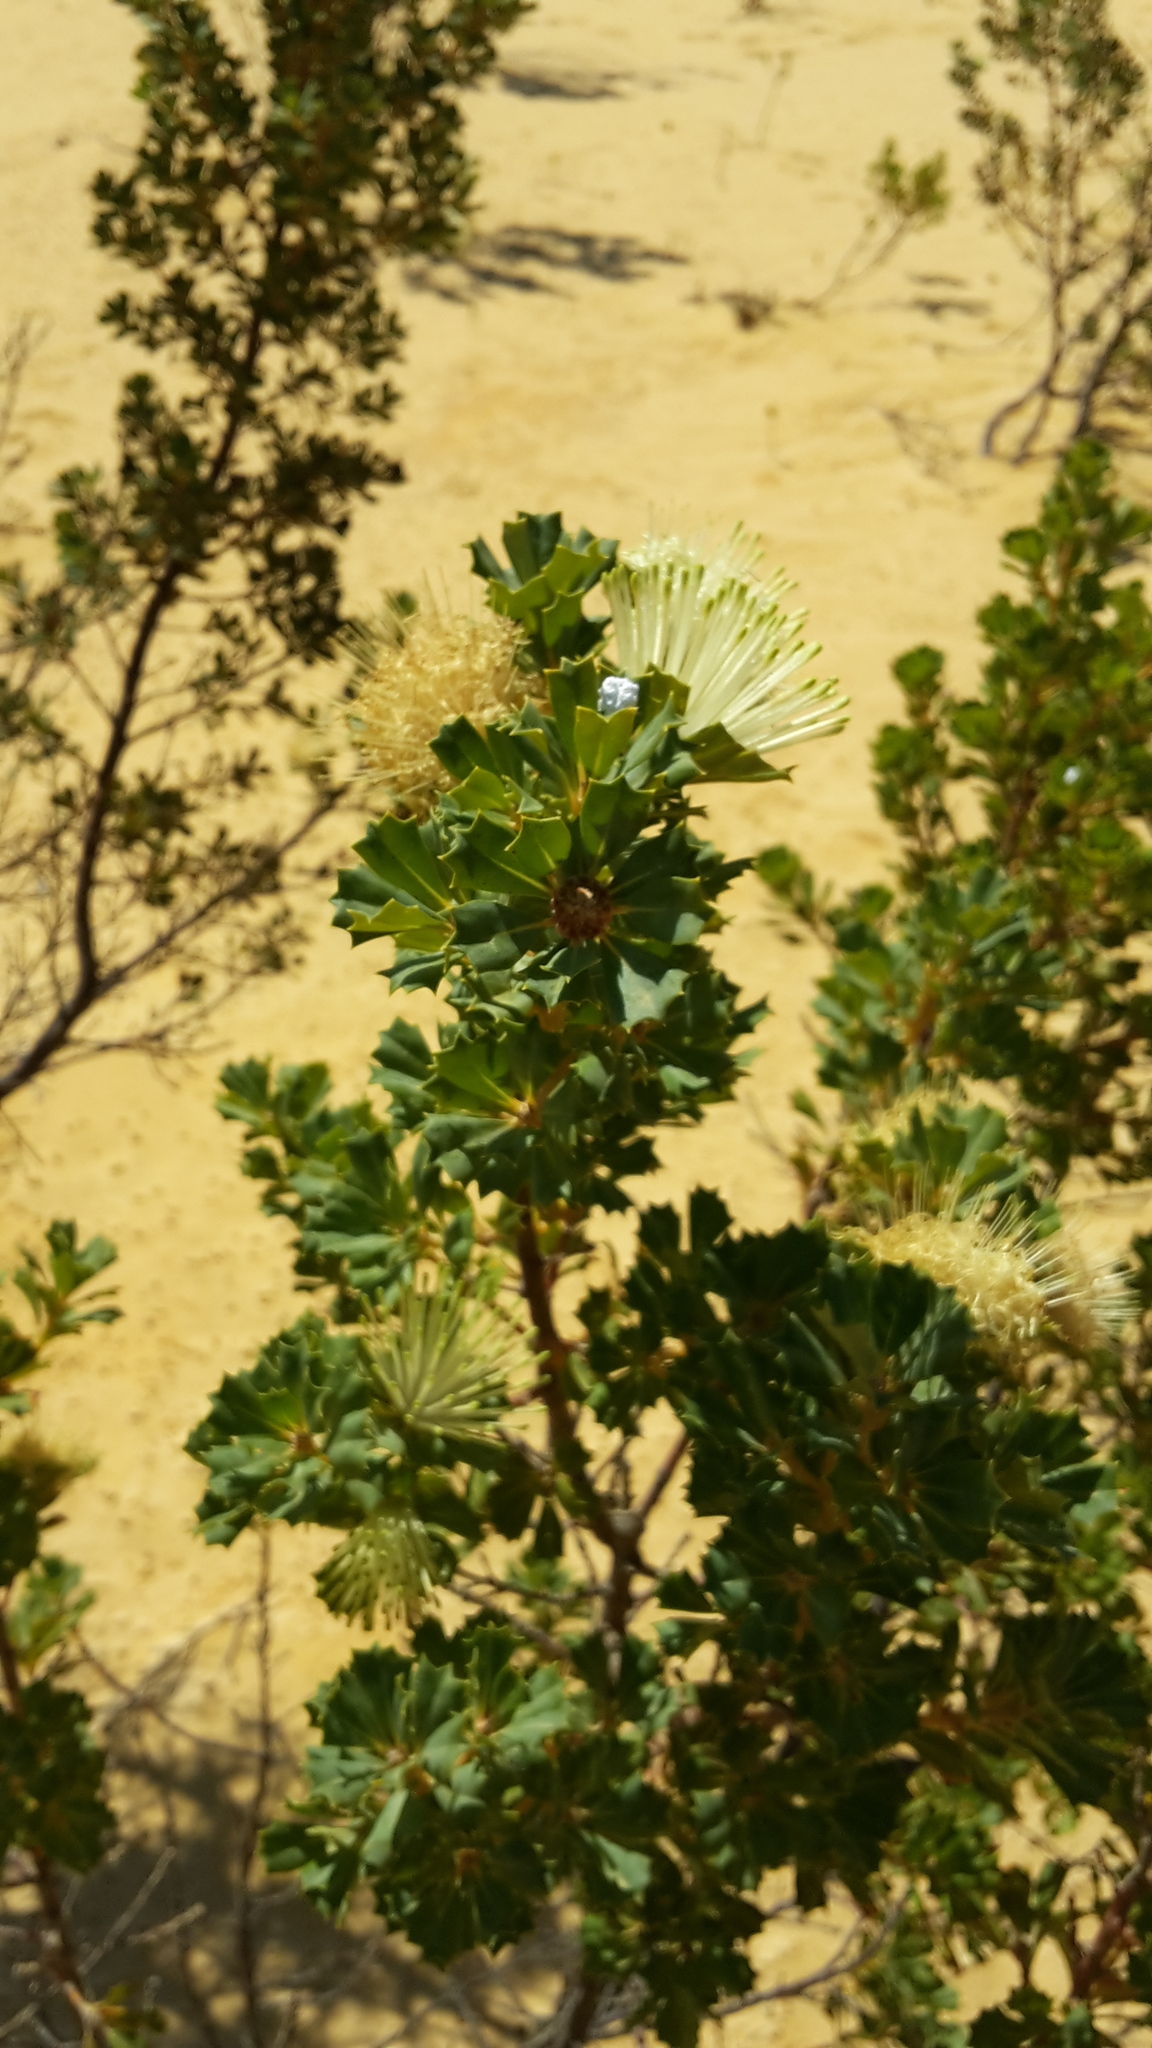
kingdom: Plantae
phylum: Tracheophyta
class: Magnoliopsida
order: Proteales
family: Proteaceae
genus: Banksia
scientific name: Banksia sessilis
